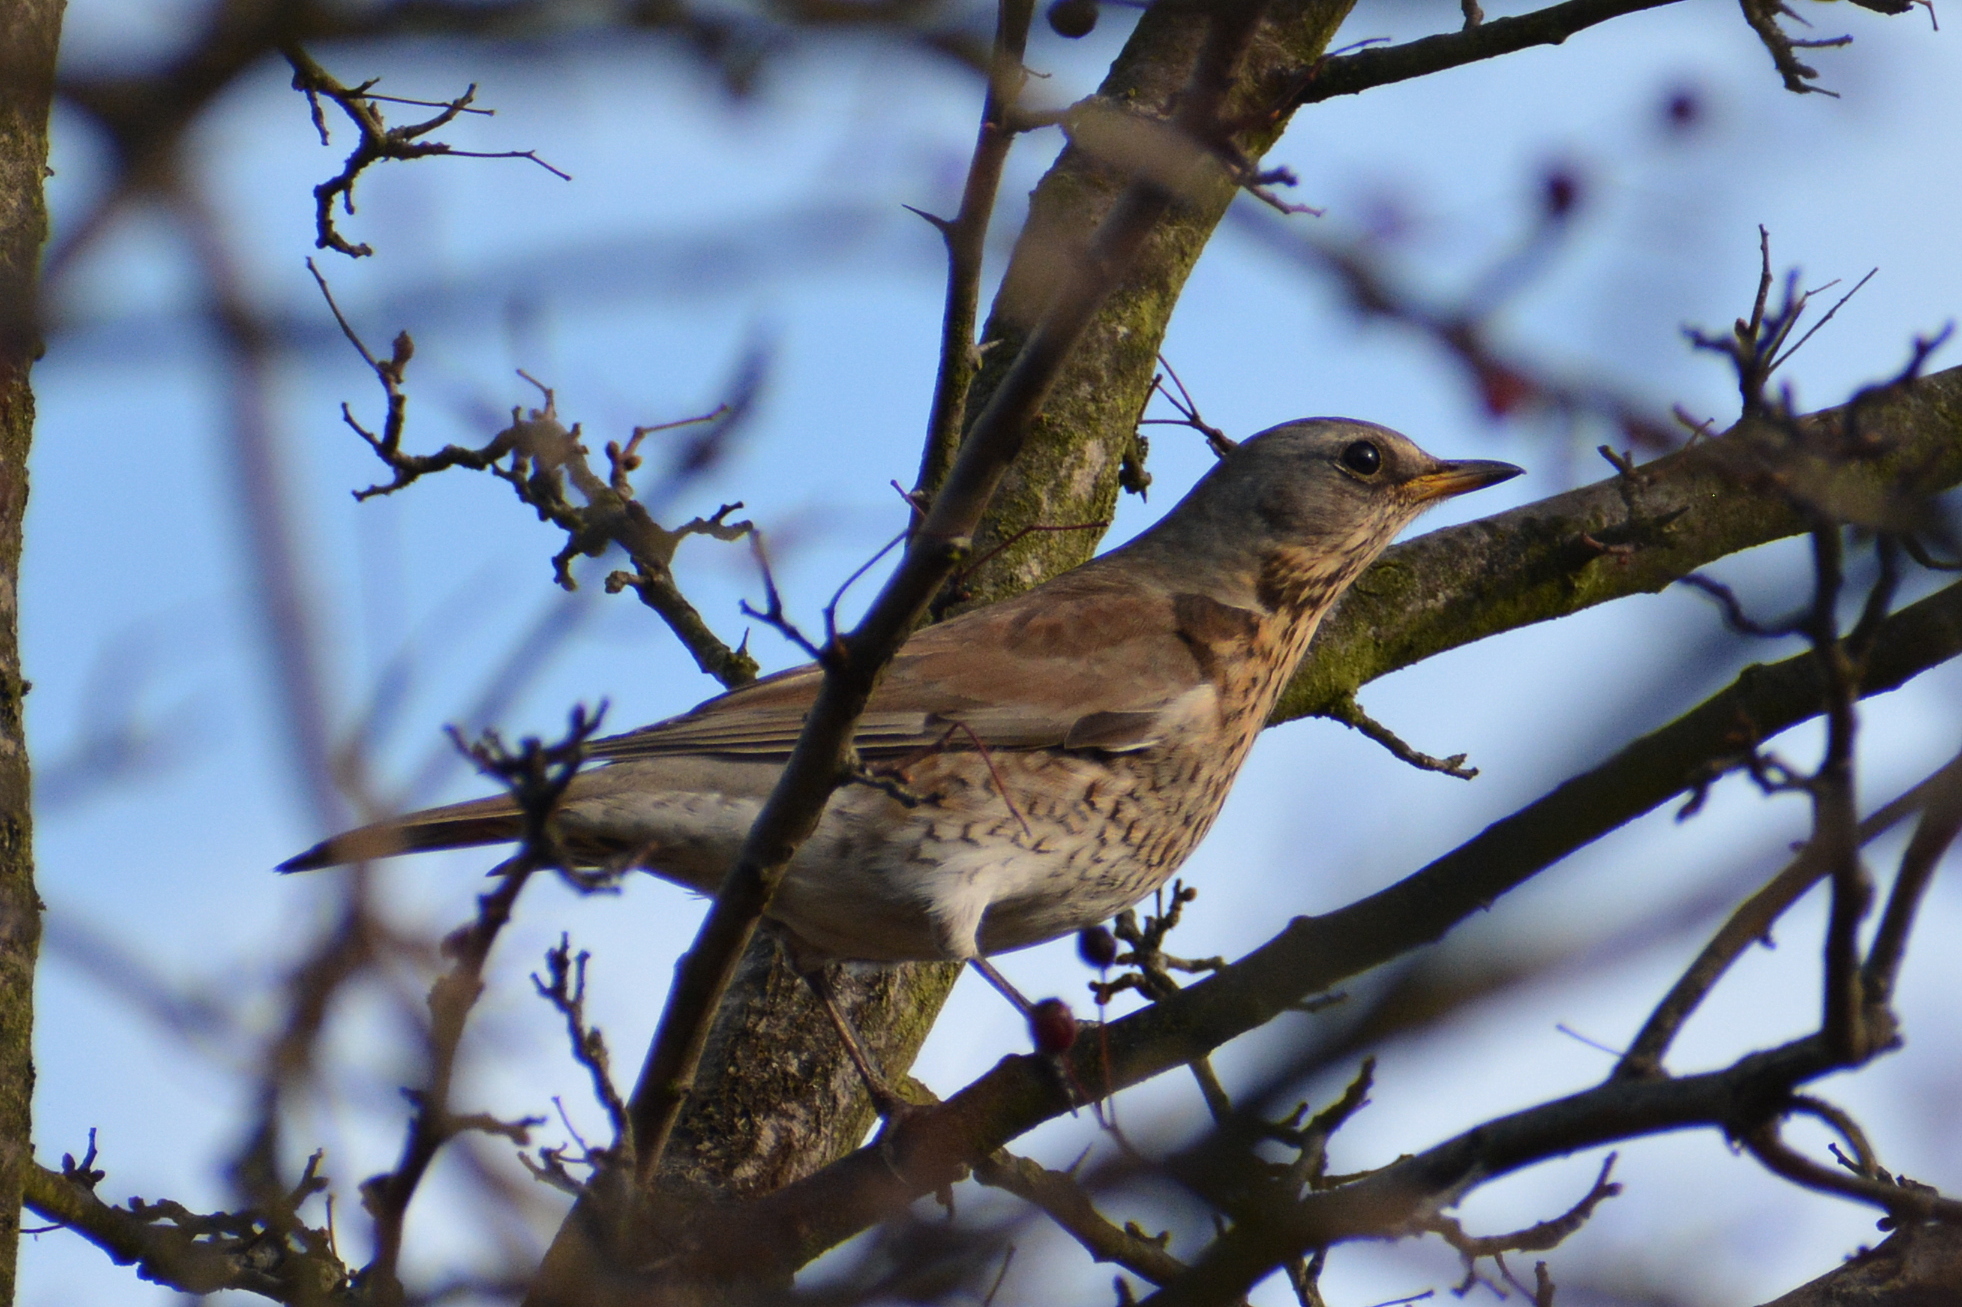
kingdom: Animalia
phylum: Chordata
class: Aves
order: Passeriformes
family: Turdidae
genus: Turdus
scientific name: Turdus pilaris
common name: Fieldfare
